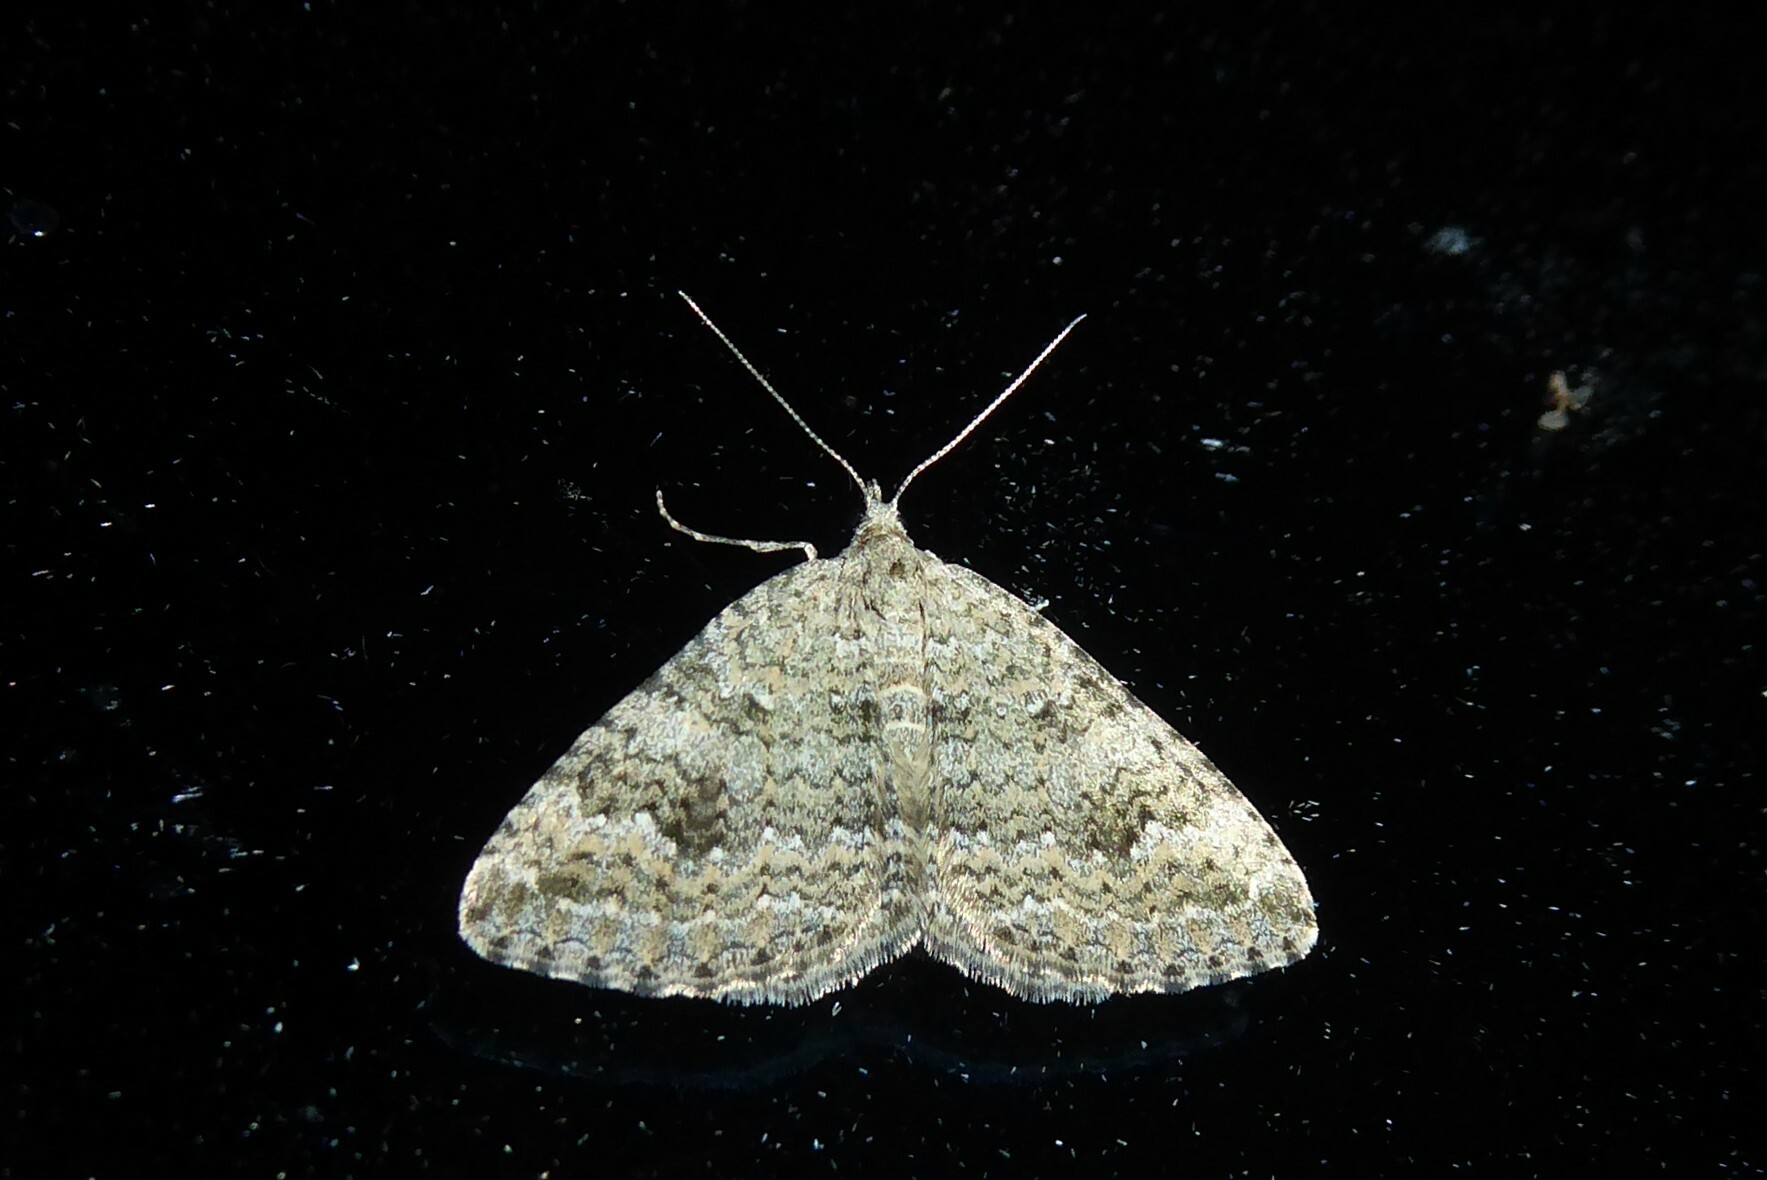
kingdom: Animalia
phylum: Arthropoda
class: Insecta
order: Lepidoptera
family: Geometridae
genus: Helastia
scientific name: Helastia corcularia
